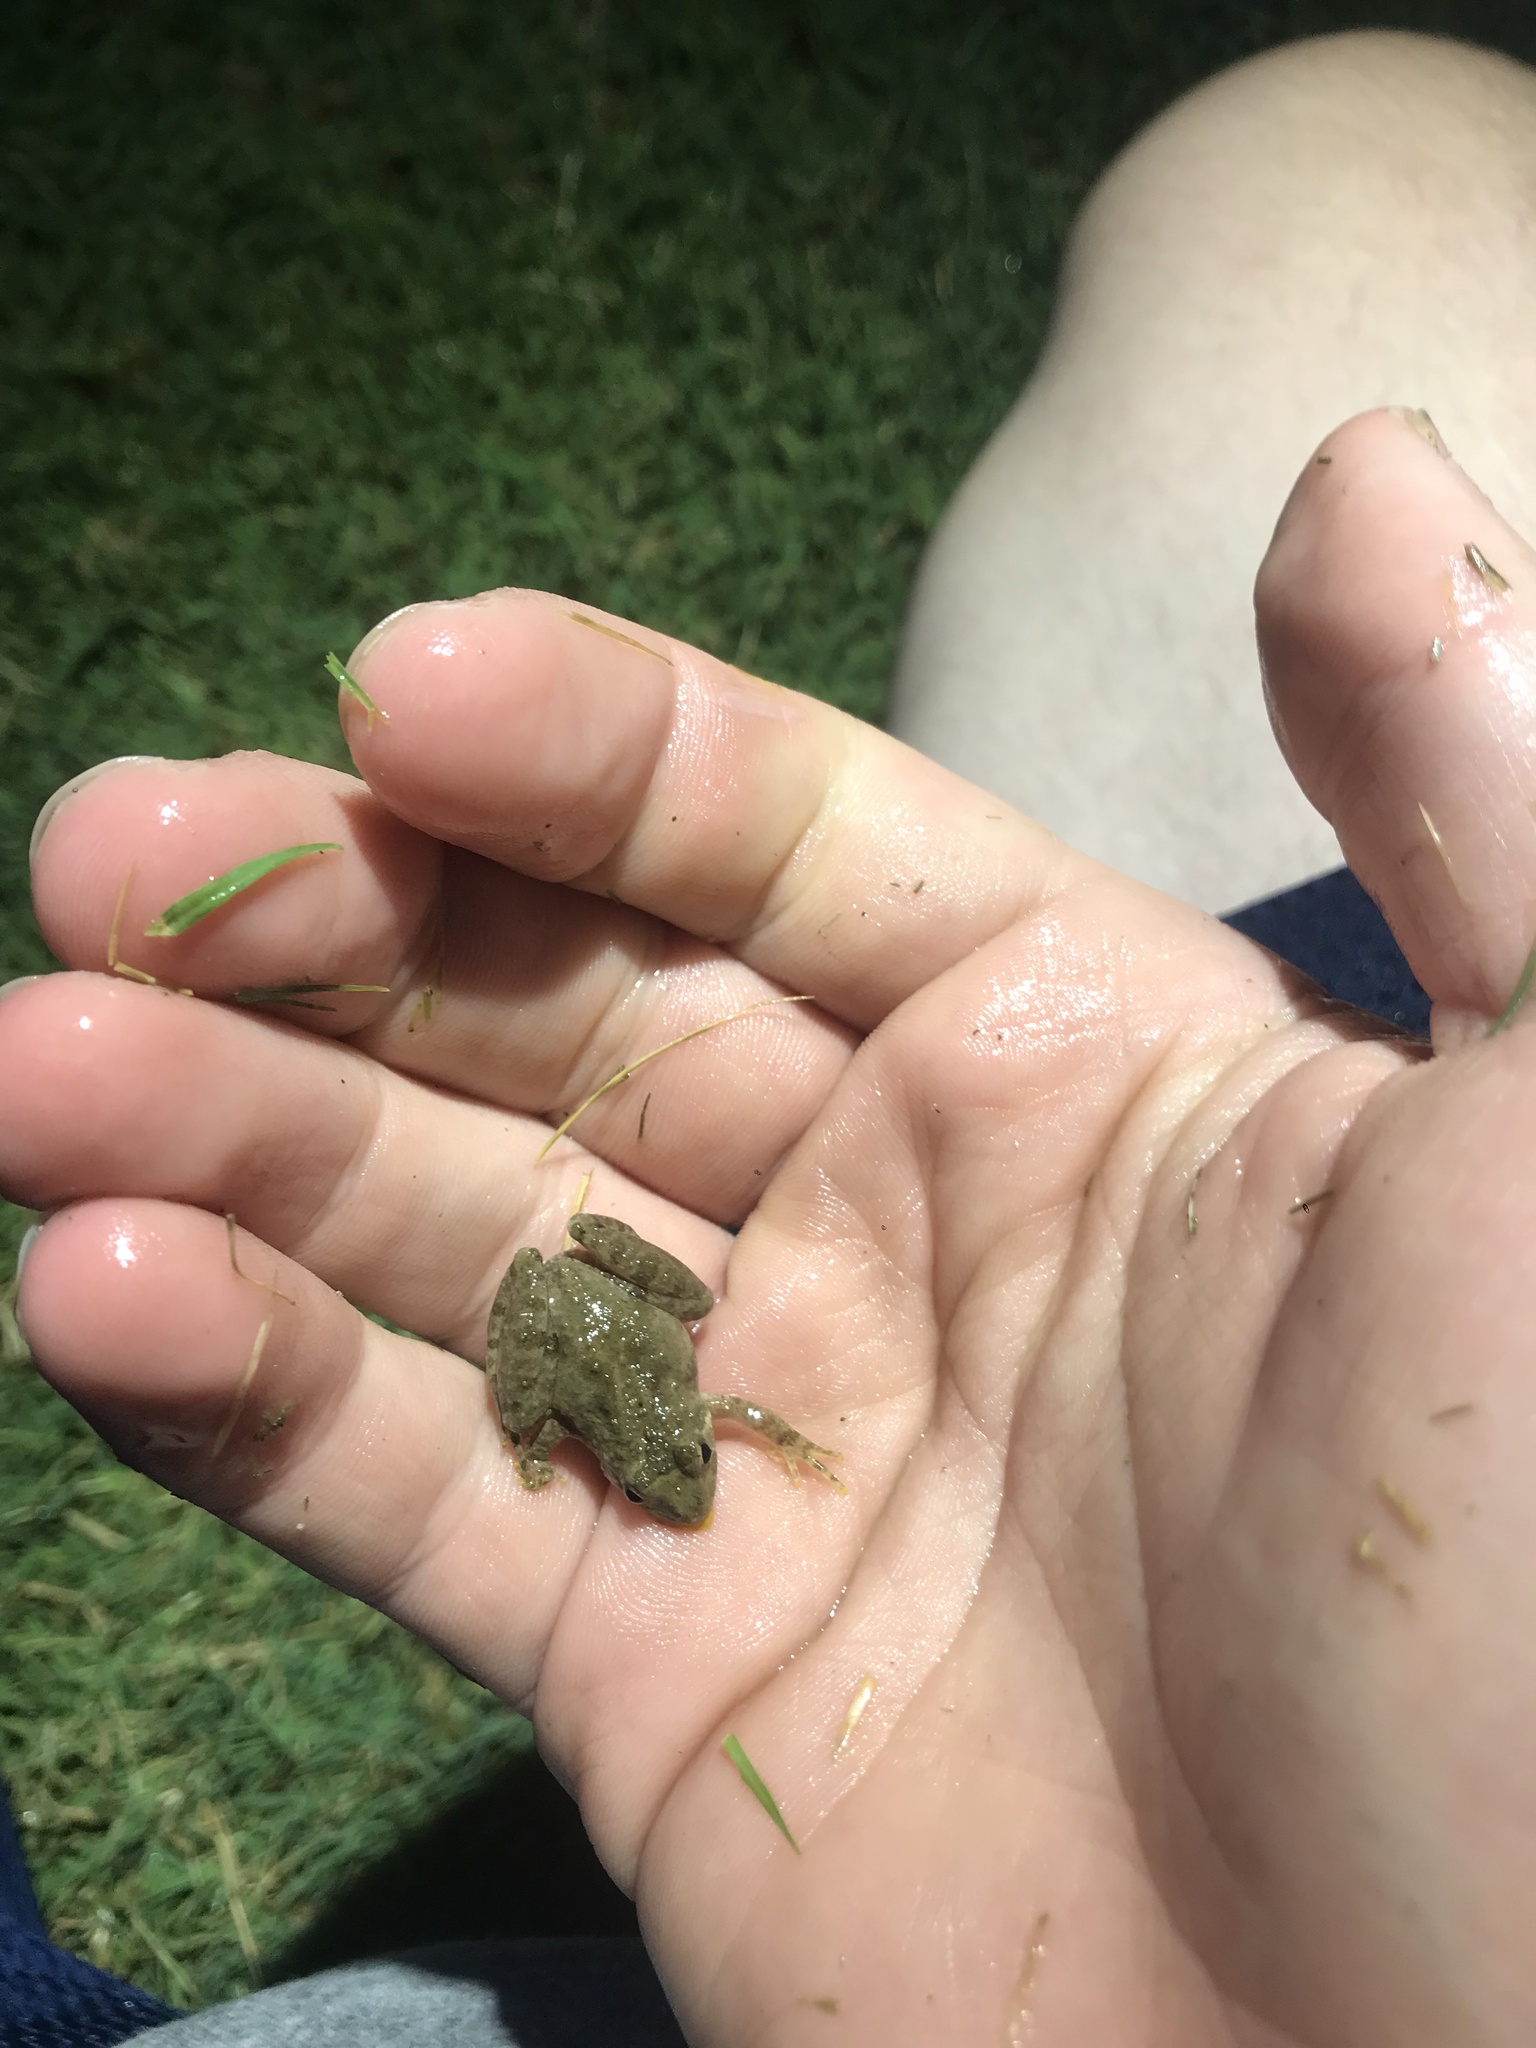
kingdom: Animalia
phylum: Chordata
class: Amphibia
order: Anura
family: Hylidae
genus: Acris
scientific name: Acris crepitans
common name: Northern cricket frog
